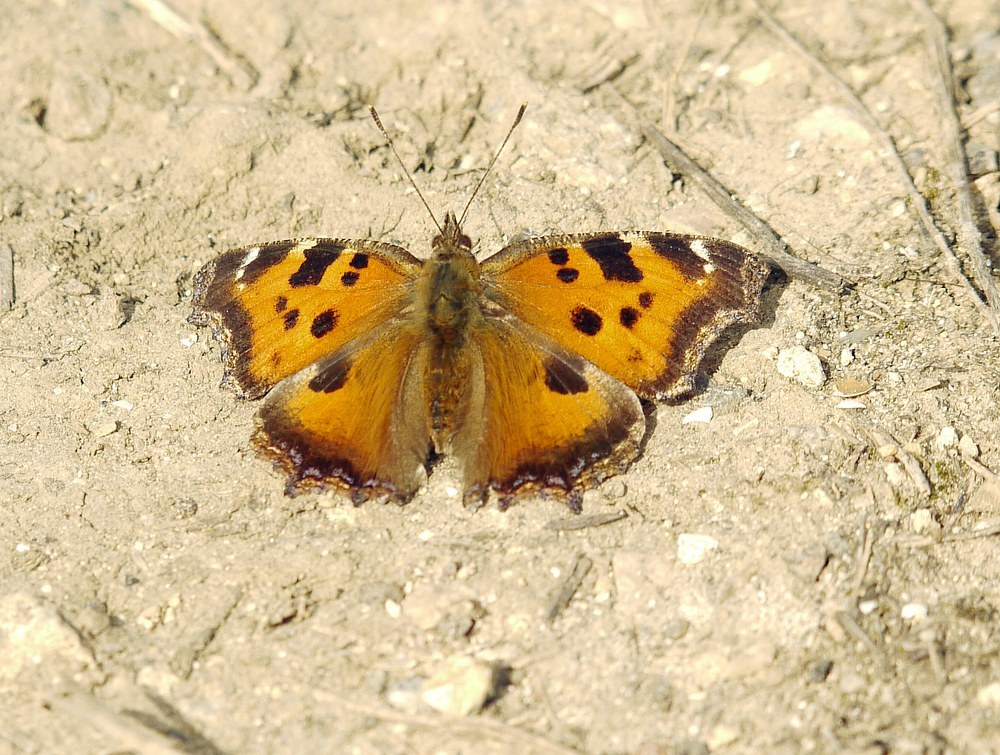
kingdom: Animalia
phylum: Arthropoda
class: Insecta
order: Lepidoptera
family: Nymphalidae
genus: Nymphalis
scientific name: Nymphalis xanthomelas
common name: Scarce tortoiseshell
